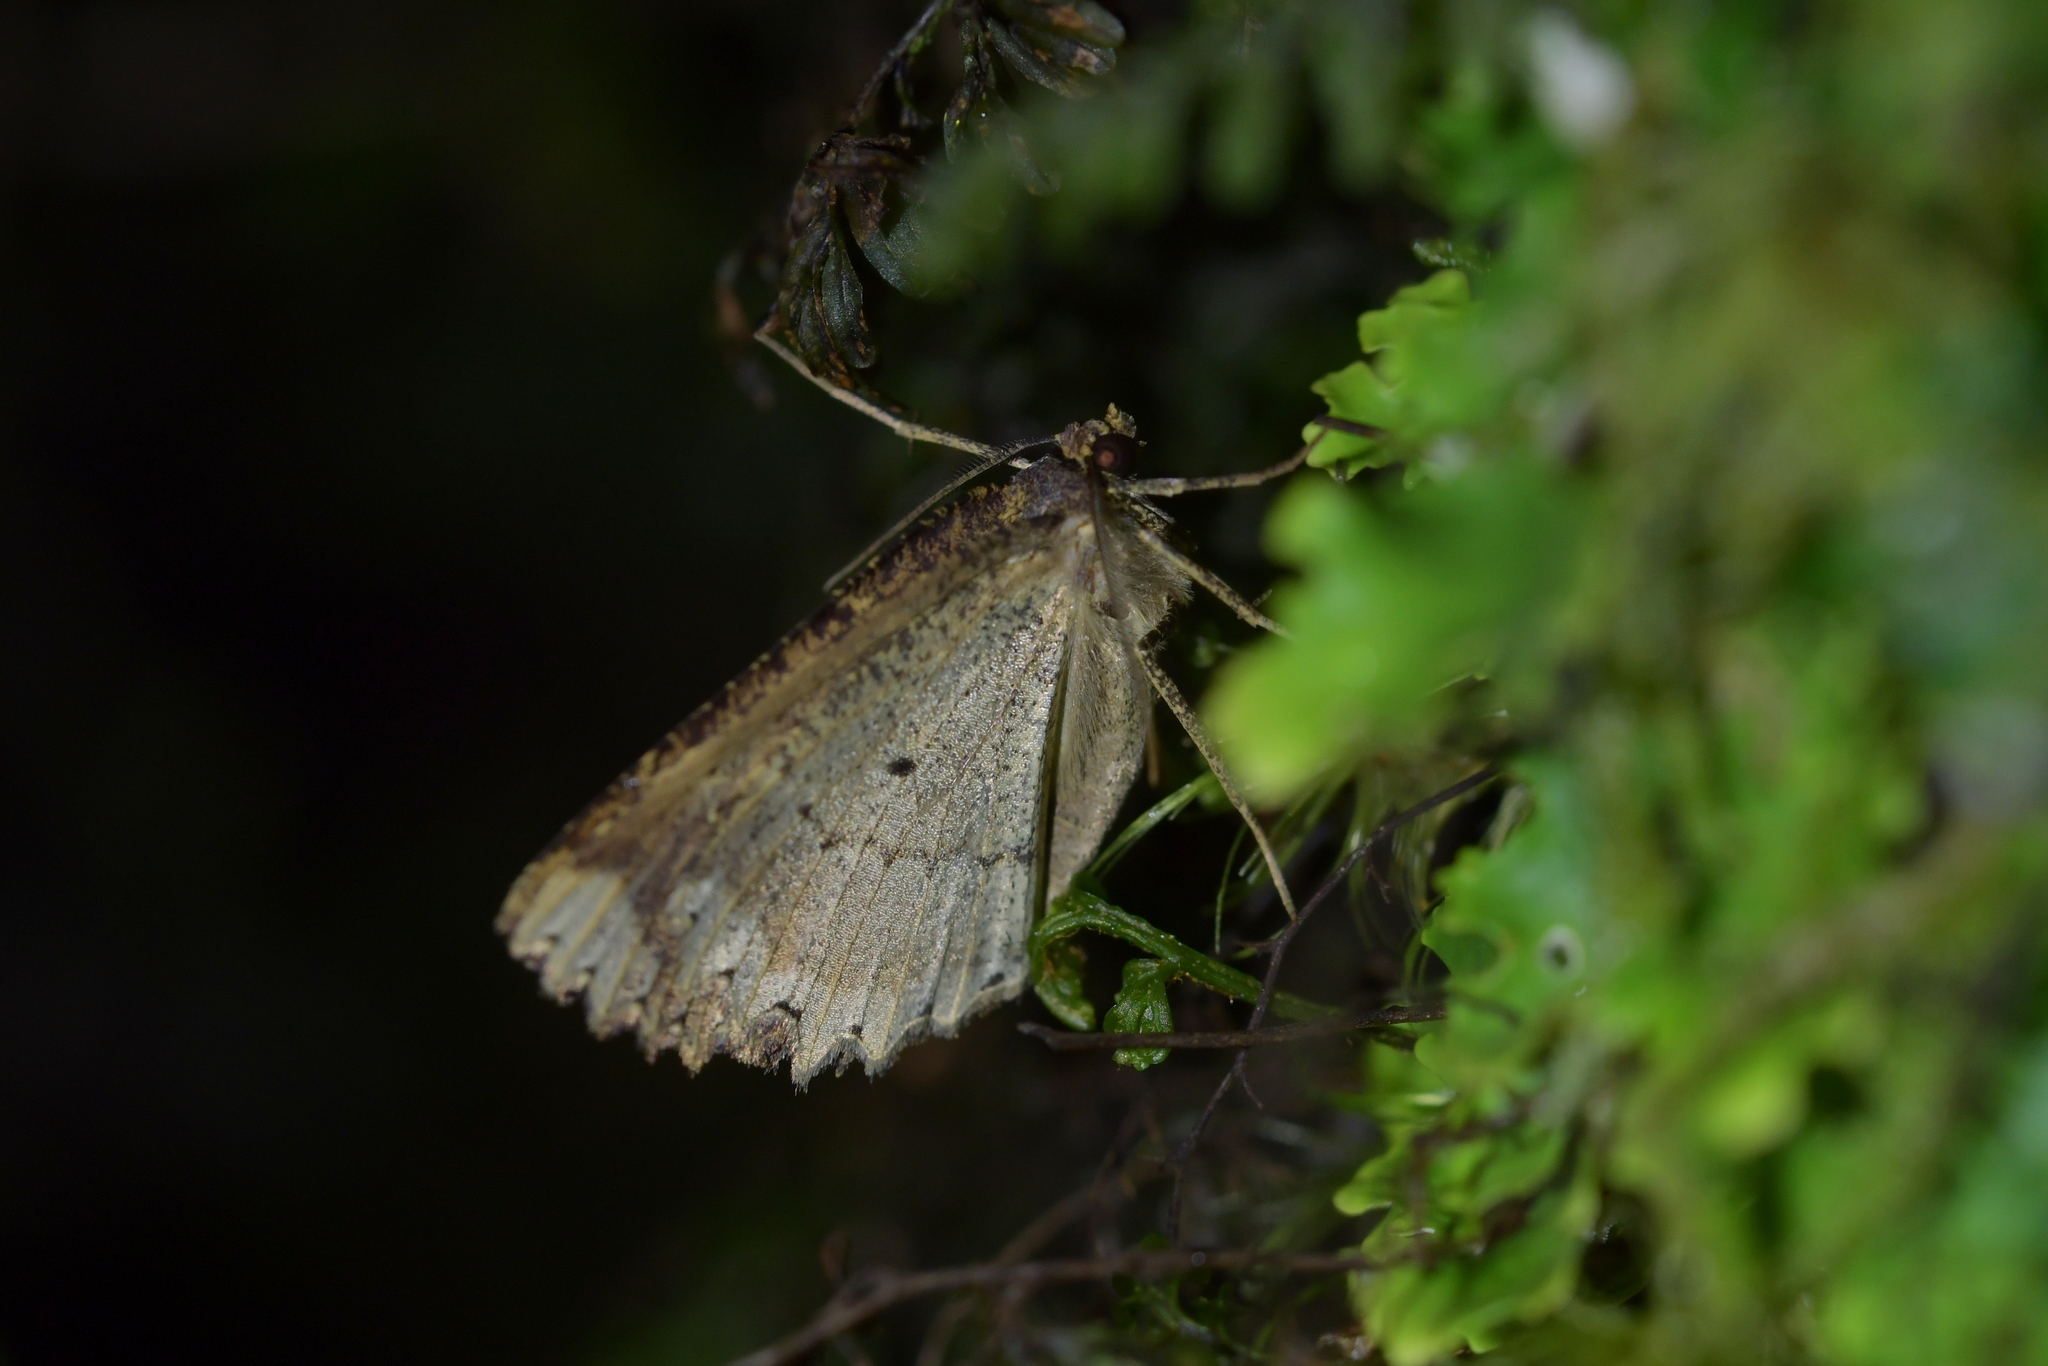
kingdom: Animalia
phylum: Arthropoda
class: Insecta
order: Lepidoptera
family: Geometridae
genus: Gellonia
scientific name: Gellonia pannularia
